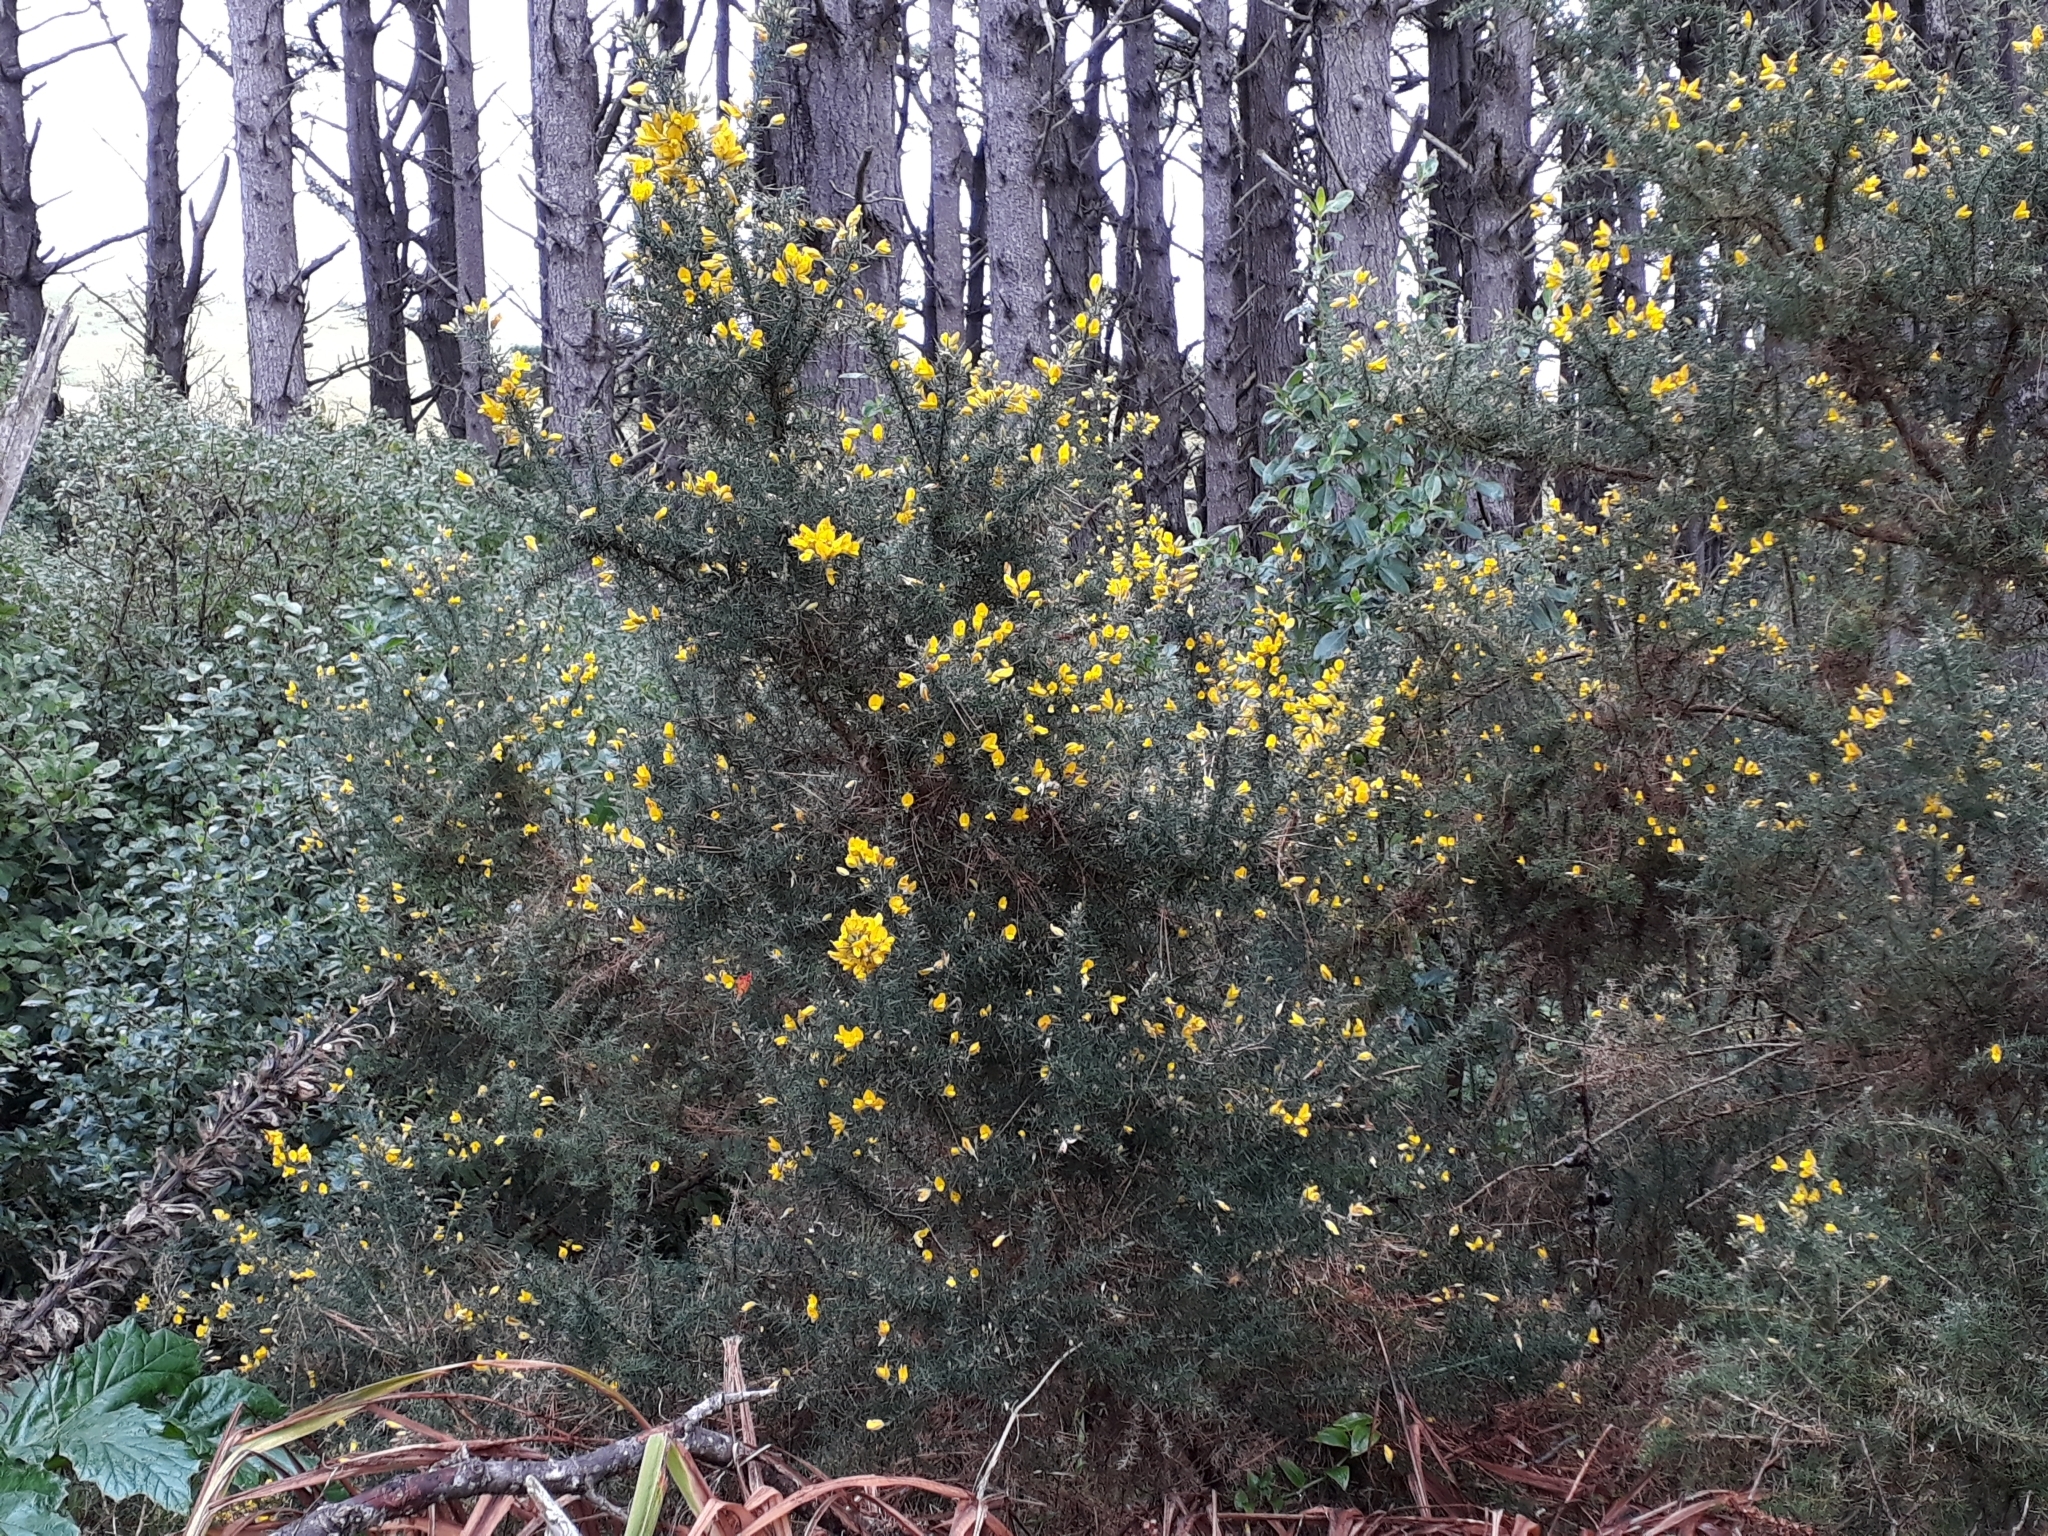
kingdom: Plantae
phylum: Tracheophyta
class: Magnoliopsida
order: Fabales
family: Fabaceae
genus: Ulex
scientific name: Ulex europaeus
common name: Common gorse
